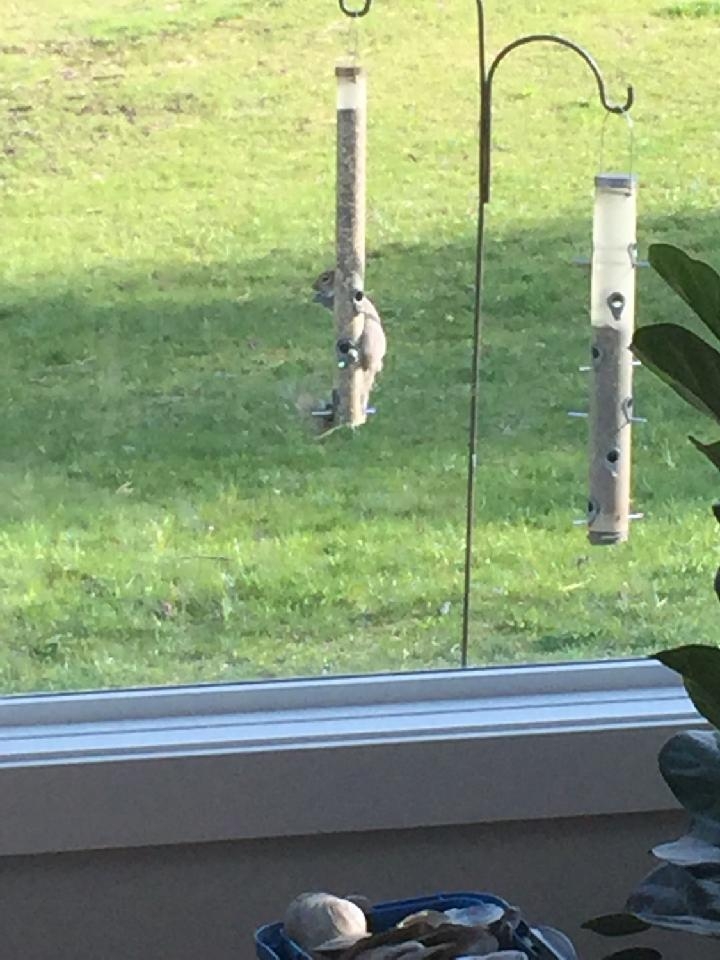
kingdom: Animalia
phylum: Chordata
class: Mammalia
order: Rodentia
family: Sciuridae
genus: Sciurus
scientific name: Sciurus carolinensis
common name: Eastern gray squirrel
